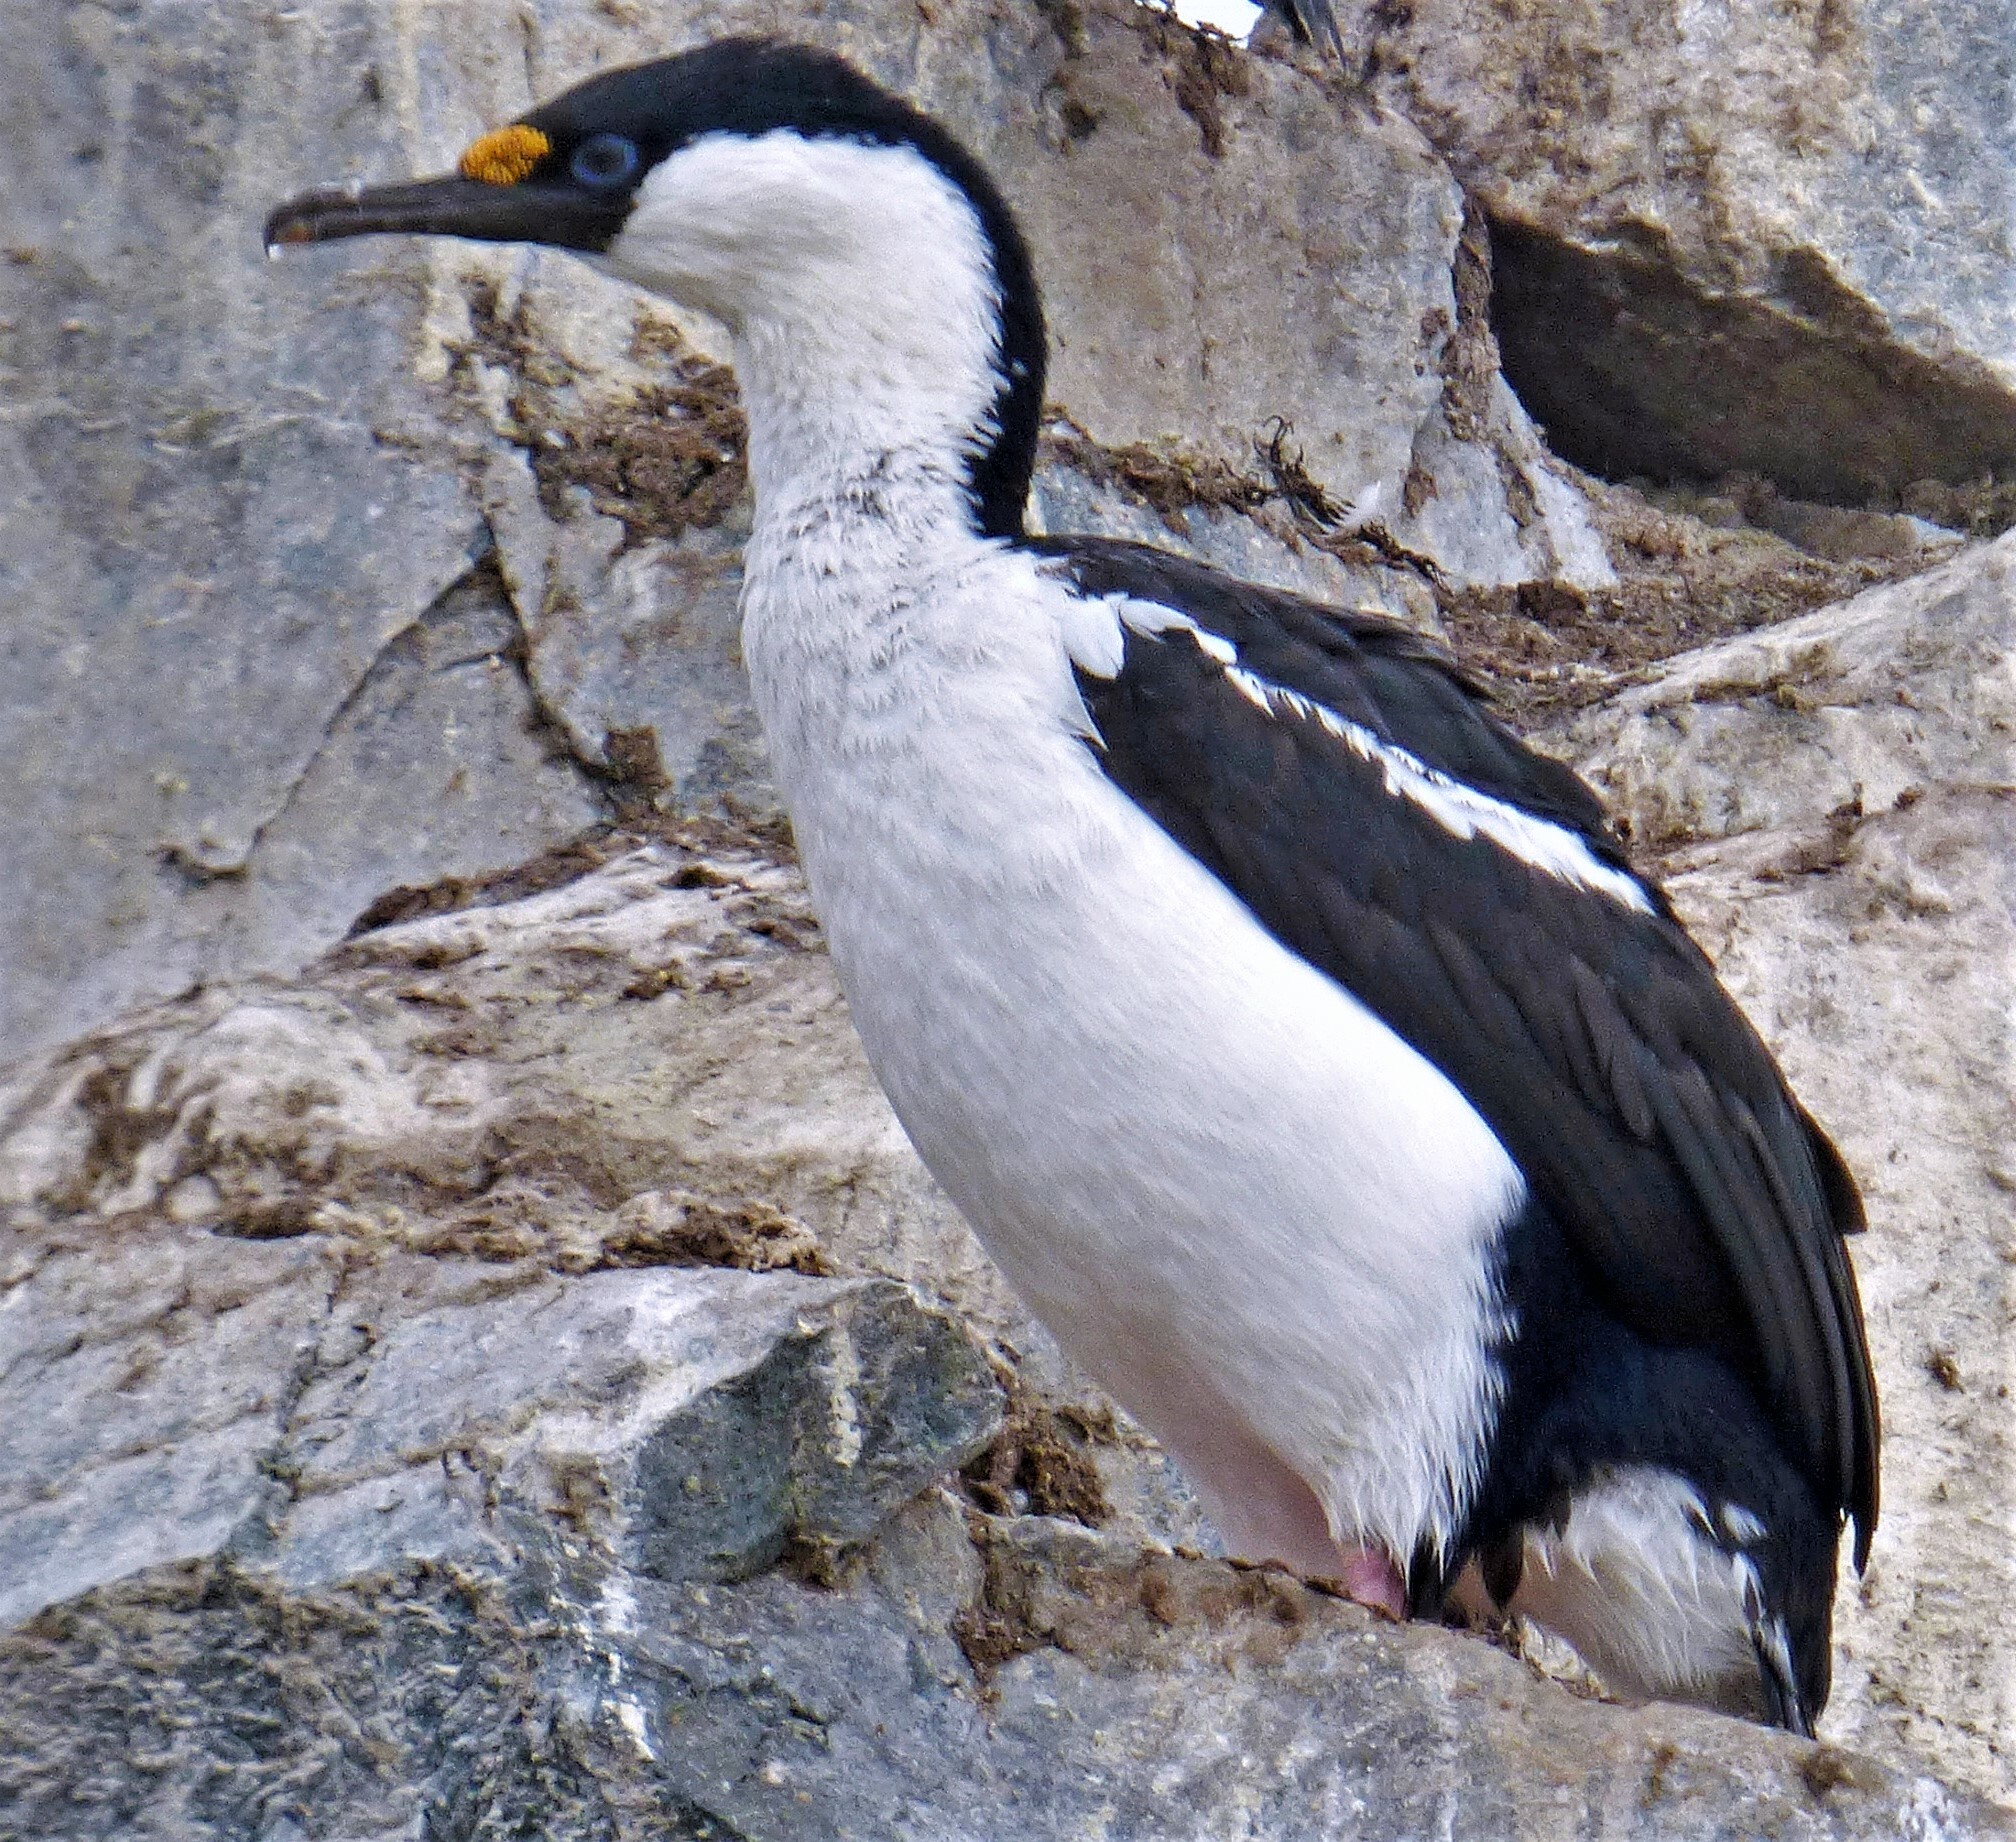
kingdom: Animalia
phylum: Chordata
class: Aves
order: Suliformes
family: Phalacrocoracidae
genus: Leucocarbo
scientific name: Leucocarbo atriceps
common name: Imperial shag
